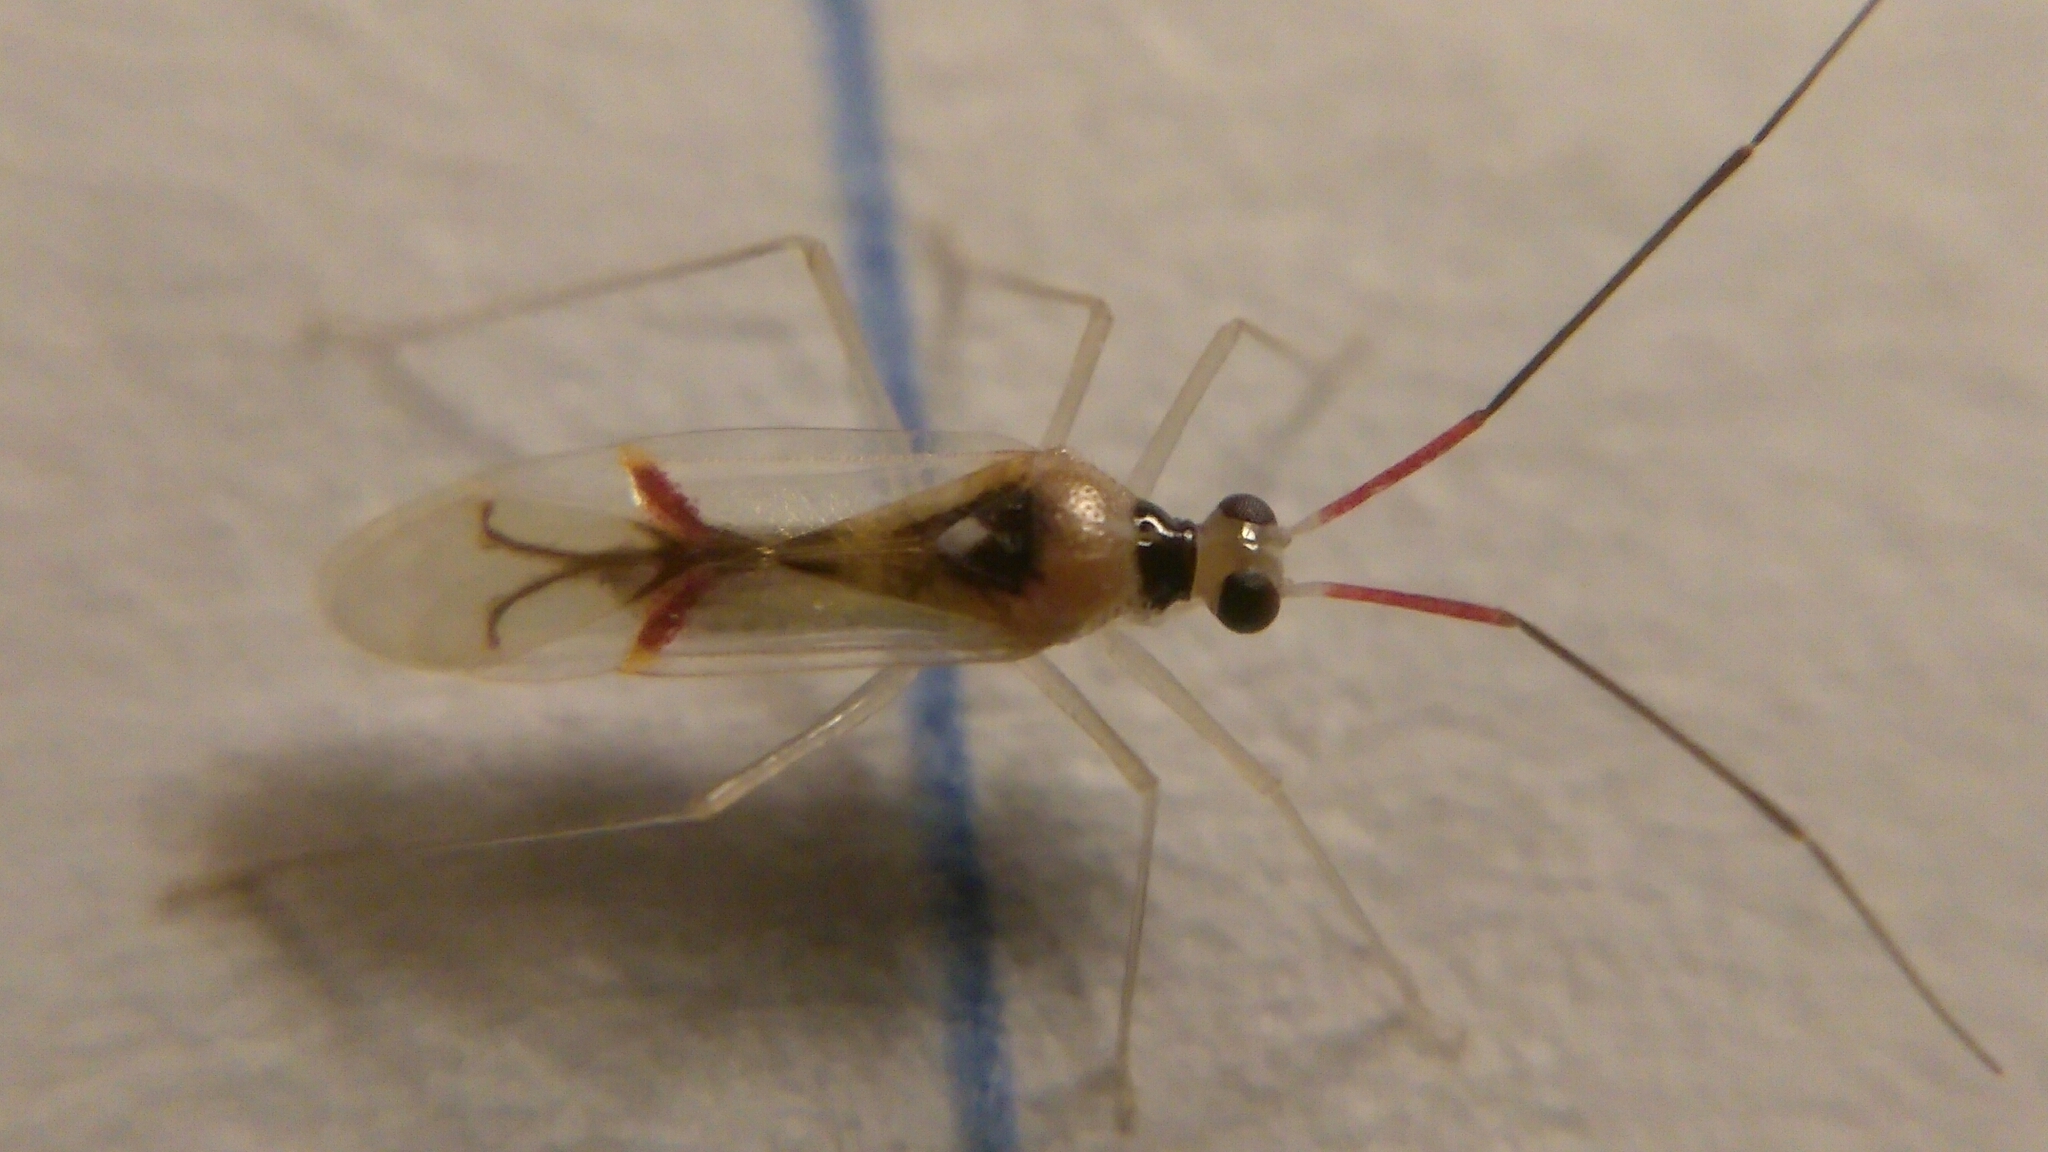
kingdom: Animalia
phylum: Arthropoda
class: Insecta
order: Hemiptera
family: Miridae
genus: Hyaliodes
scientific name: Hyaliodes harti
